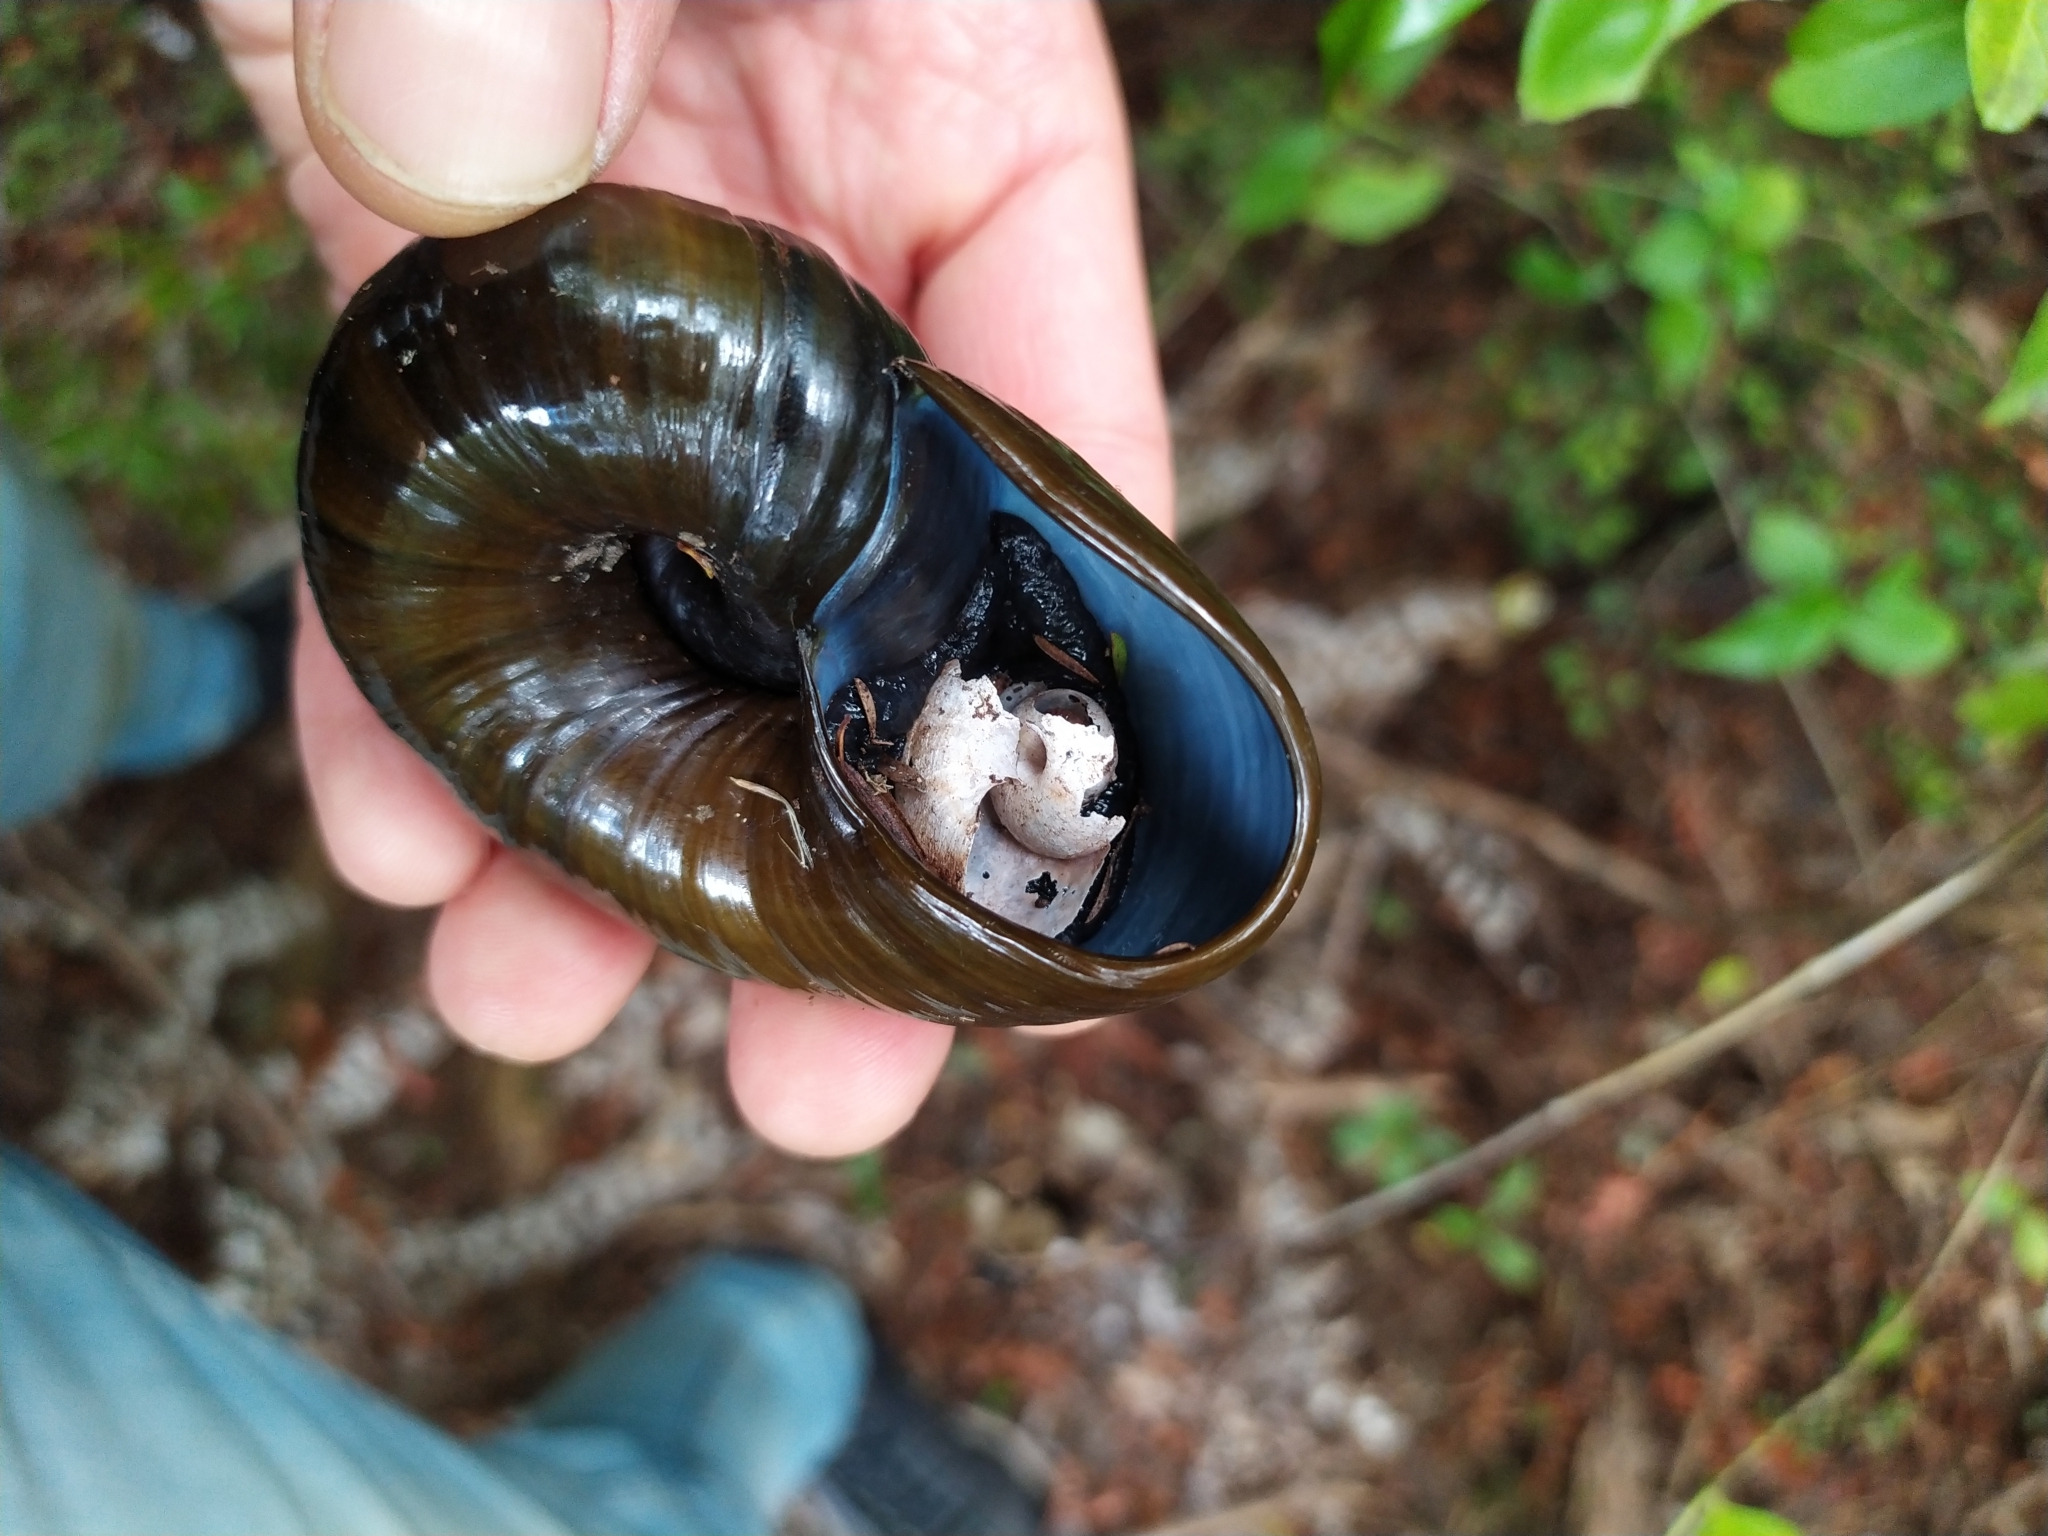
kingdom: Animalia
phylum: Mollusca
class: Gastropoda
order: Stylommatophora
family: Rhytididae
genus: Paryphanta
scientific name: Paryphanta busbyi
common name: Kauri snail
